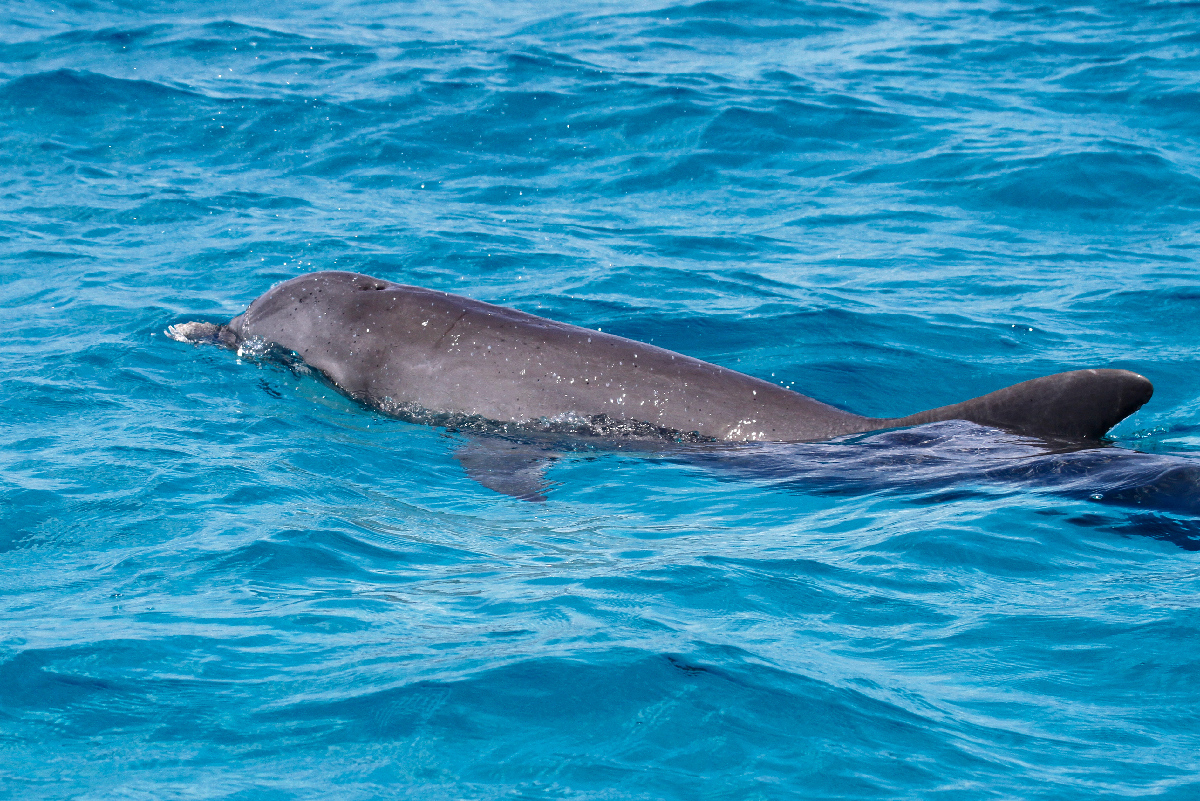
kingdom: Animalia
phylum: Chordata
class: Mammalia
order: Cetacea
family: Delphinidae
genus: Tursiops
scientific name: Tursiops truncatus
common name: Bottlenose dolphin
